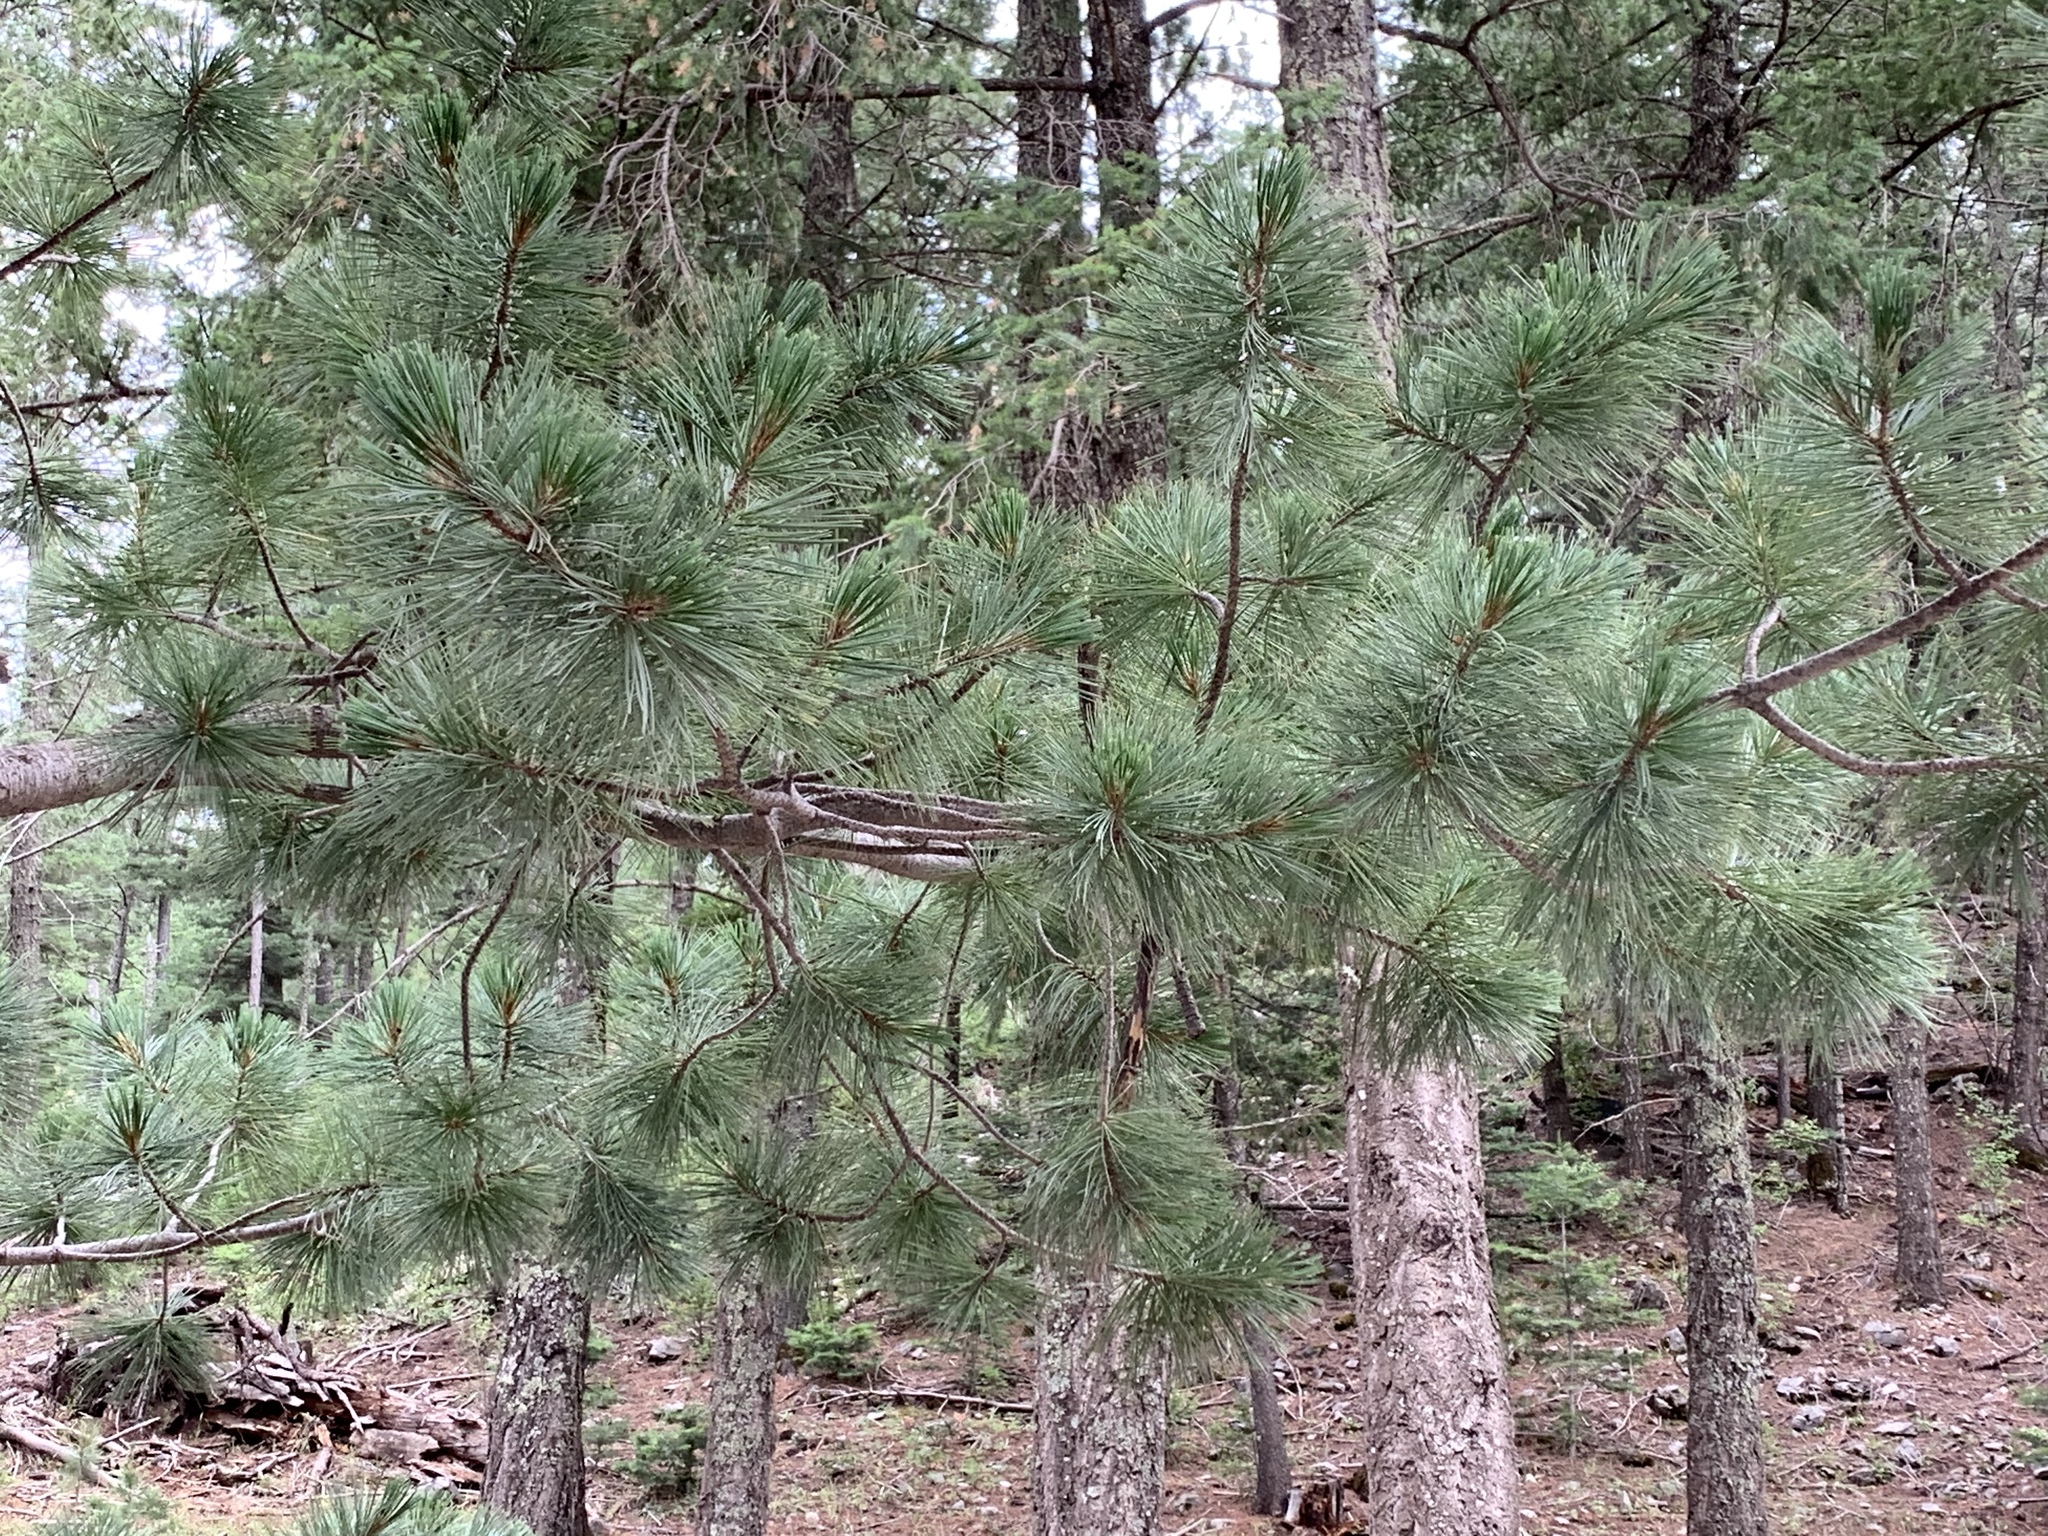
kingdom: Plantae
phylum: Tracheophyta
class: Pinopsida
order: Pinales
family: Pinaceae
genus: Pinus
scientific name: Pinus ponderosa
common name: Western yellow-pine
